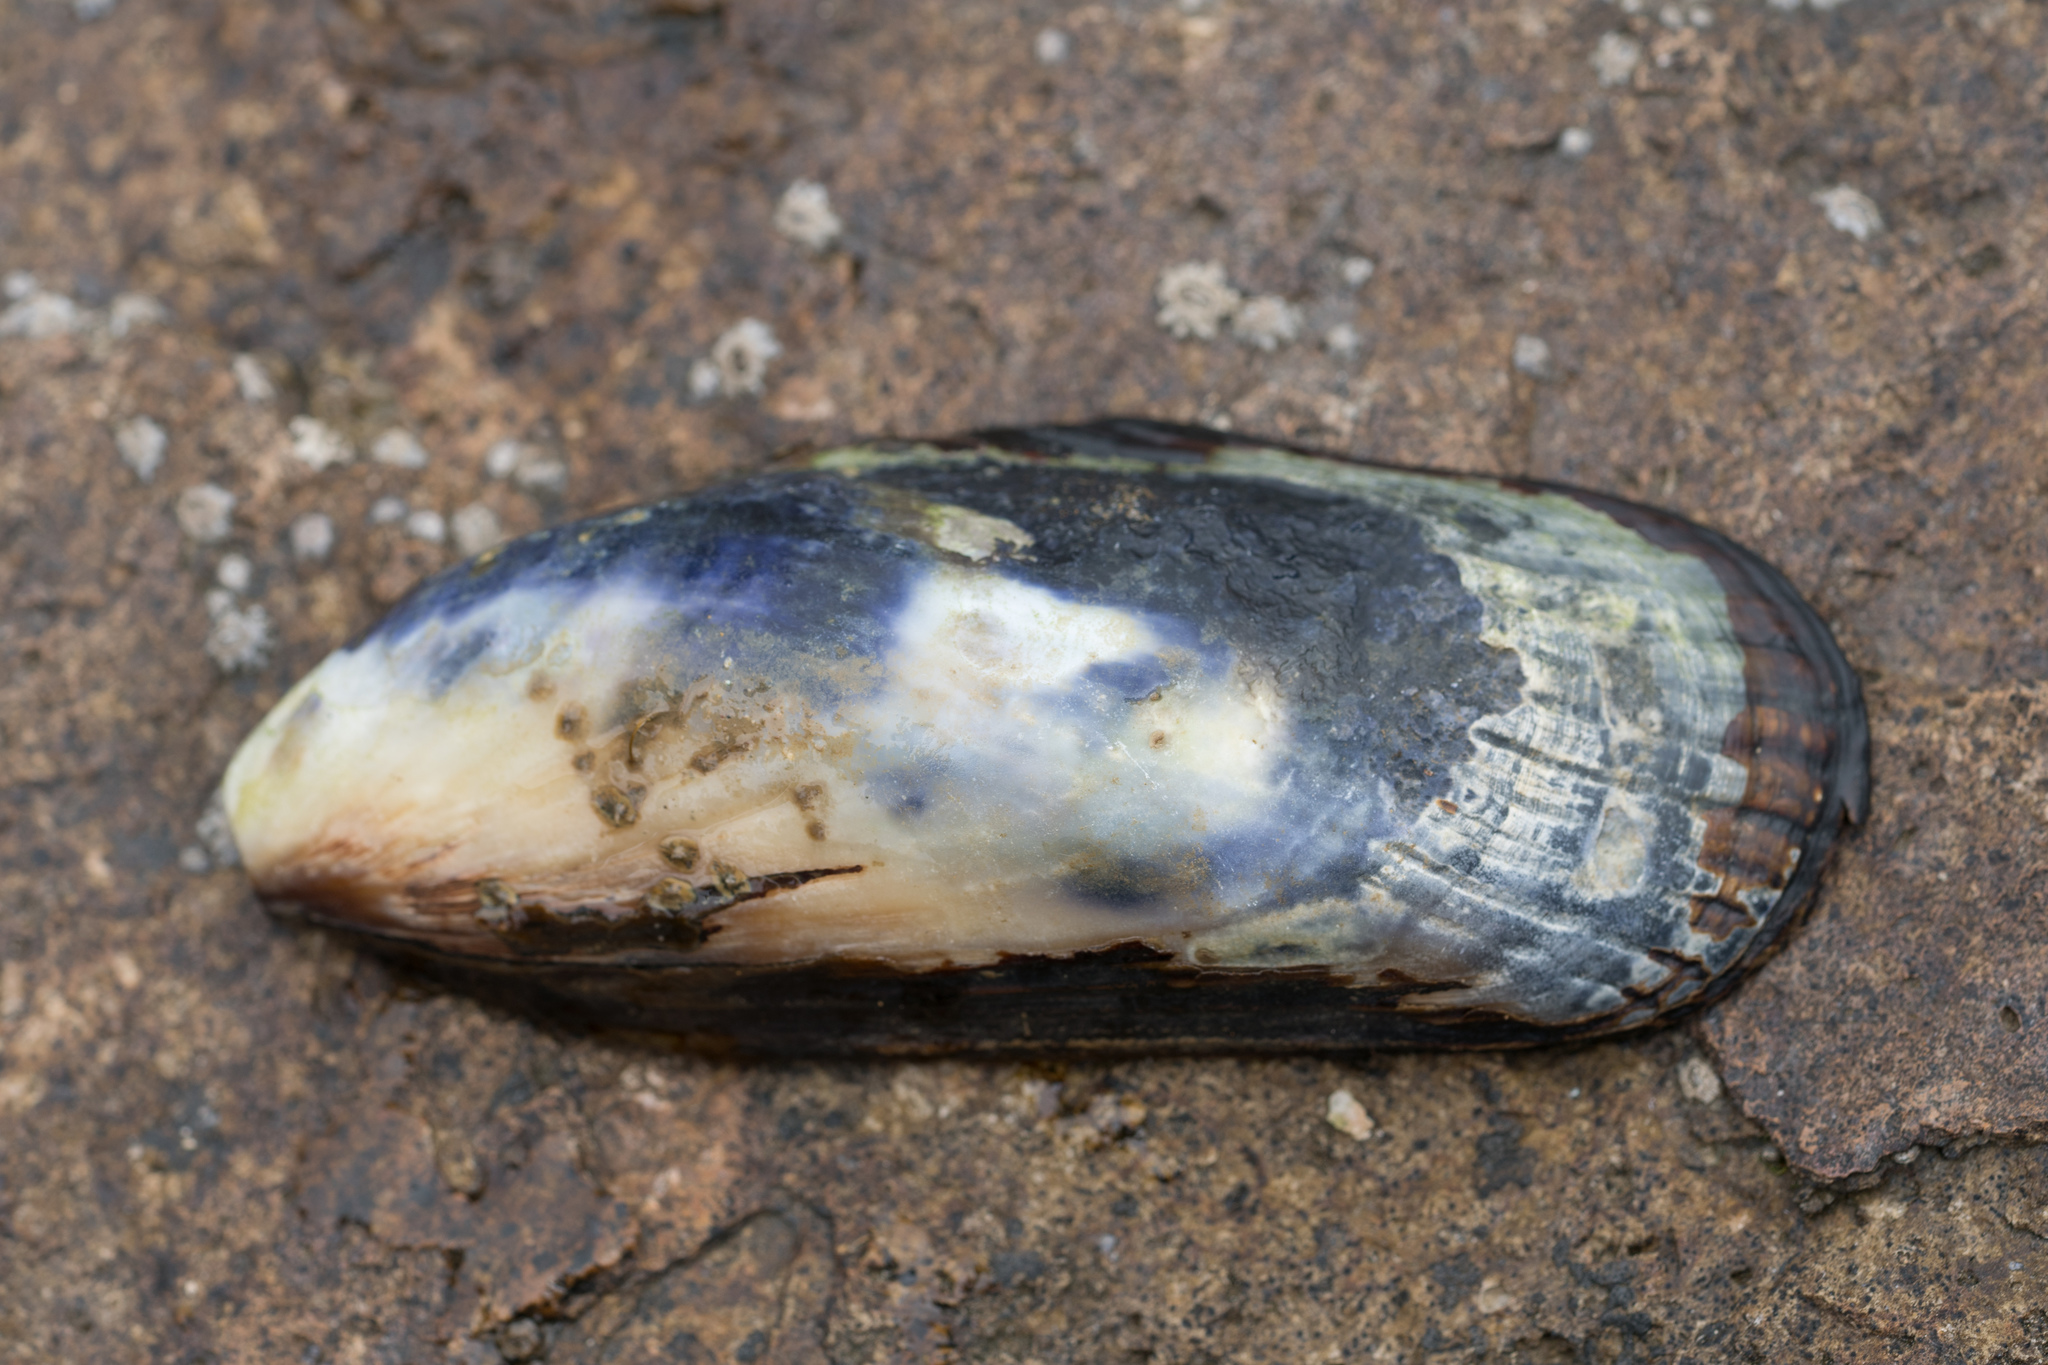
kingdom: Animalia
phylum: Mollusca
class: Bivalvia
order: Mytilida
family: Mytilidae
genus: Mytilus
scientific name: Mytilus californianus
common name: California mussel
